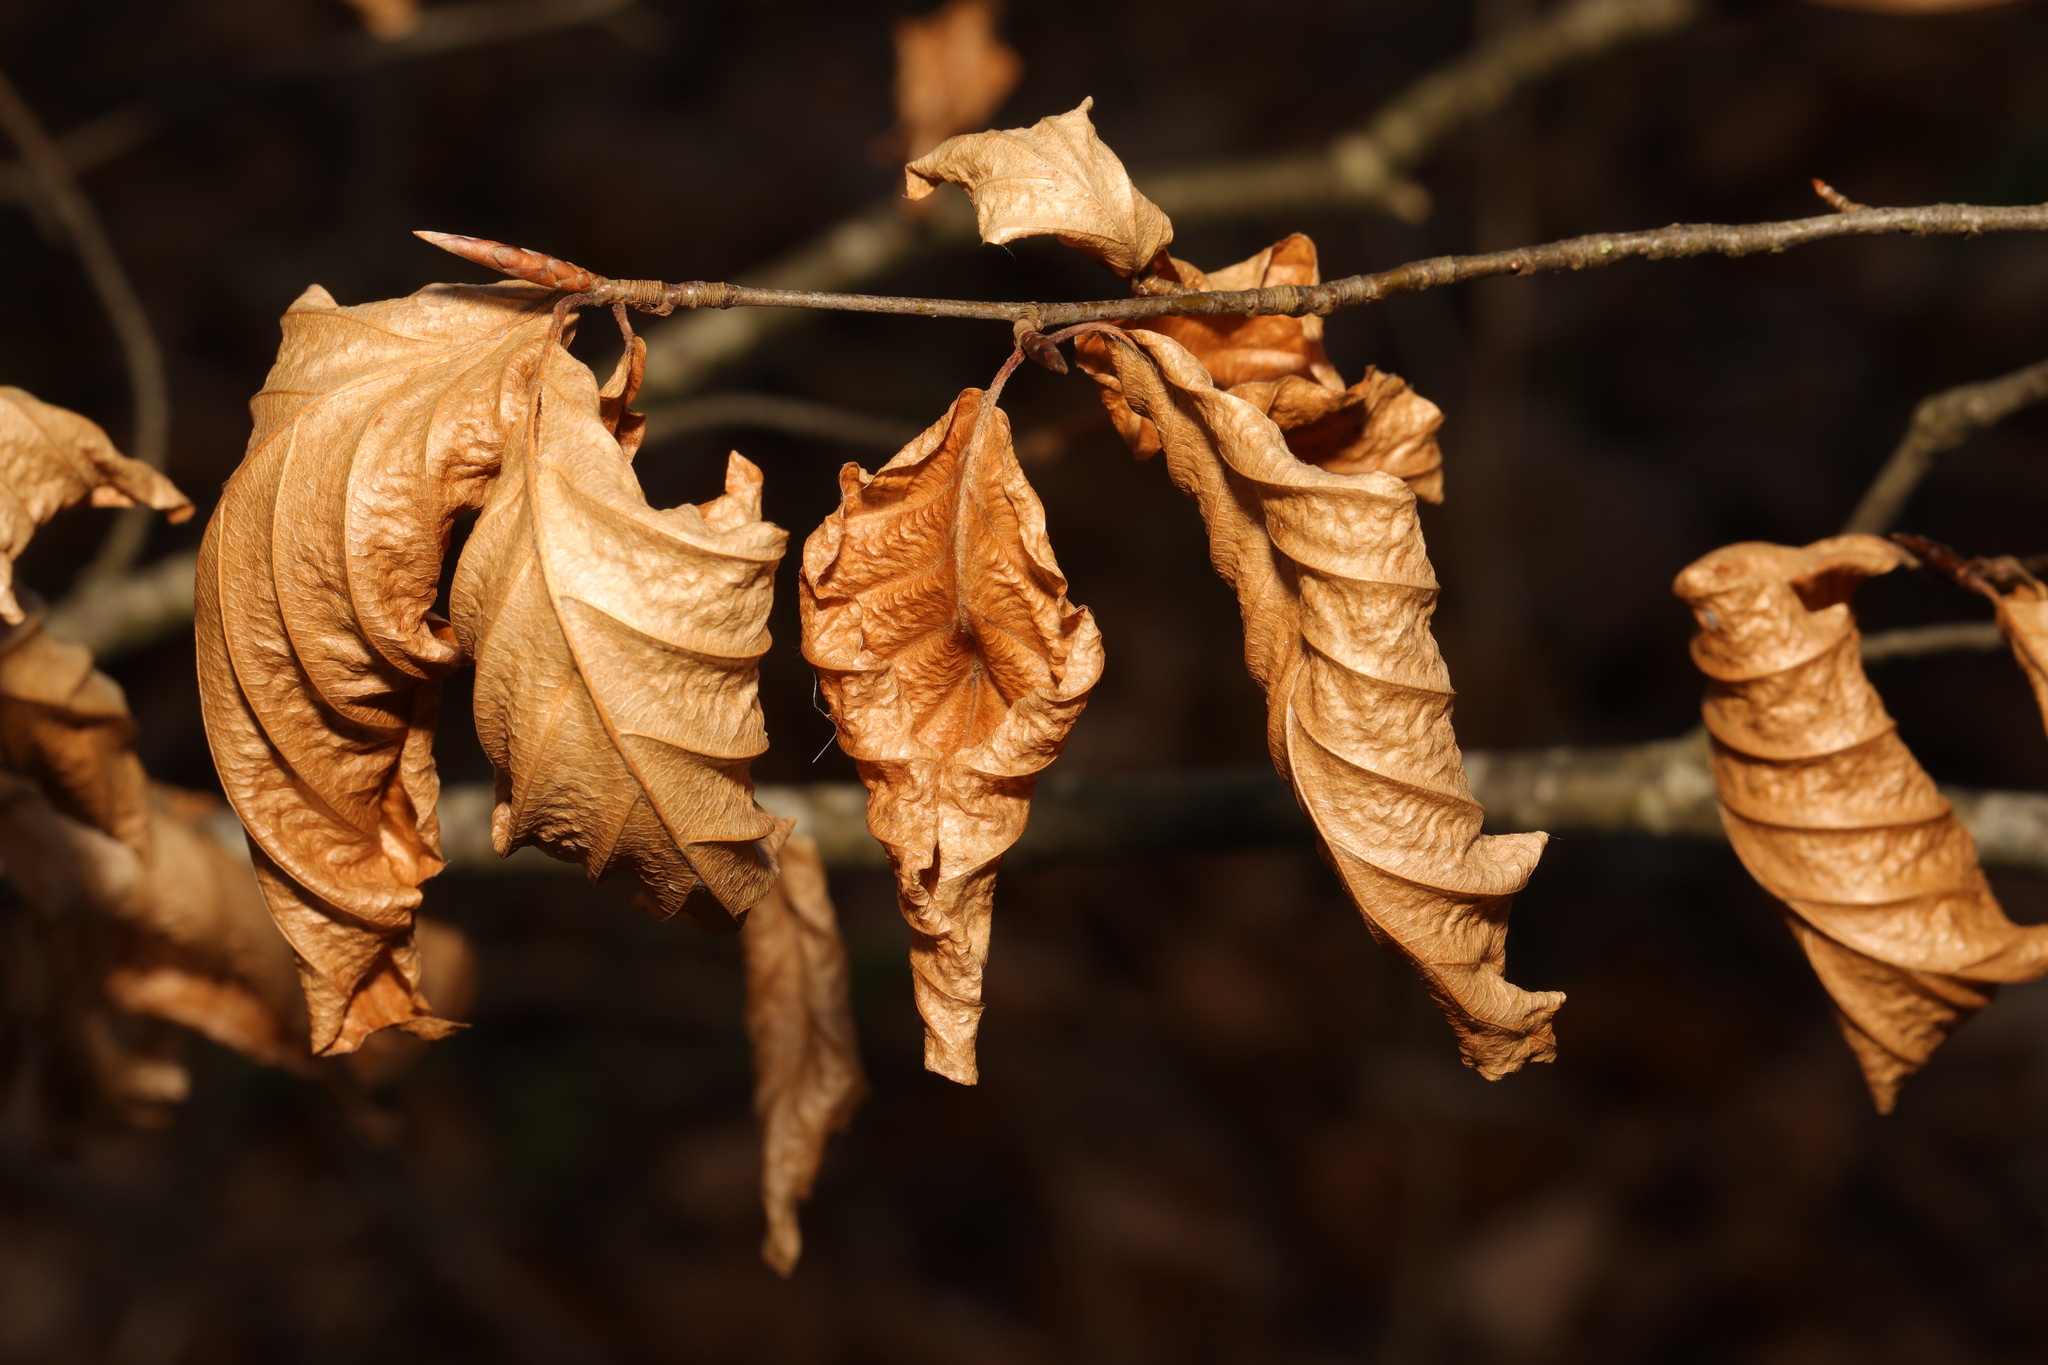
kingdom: Plantae
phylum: Tracheophyta
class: Magnoliopsida
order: Fagales
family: Fagaceae
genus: Fagus
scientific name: Fagus sylvatica
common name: Beech
